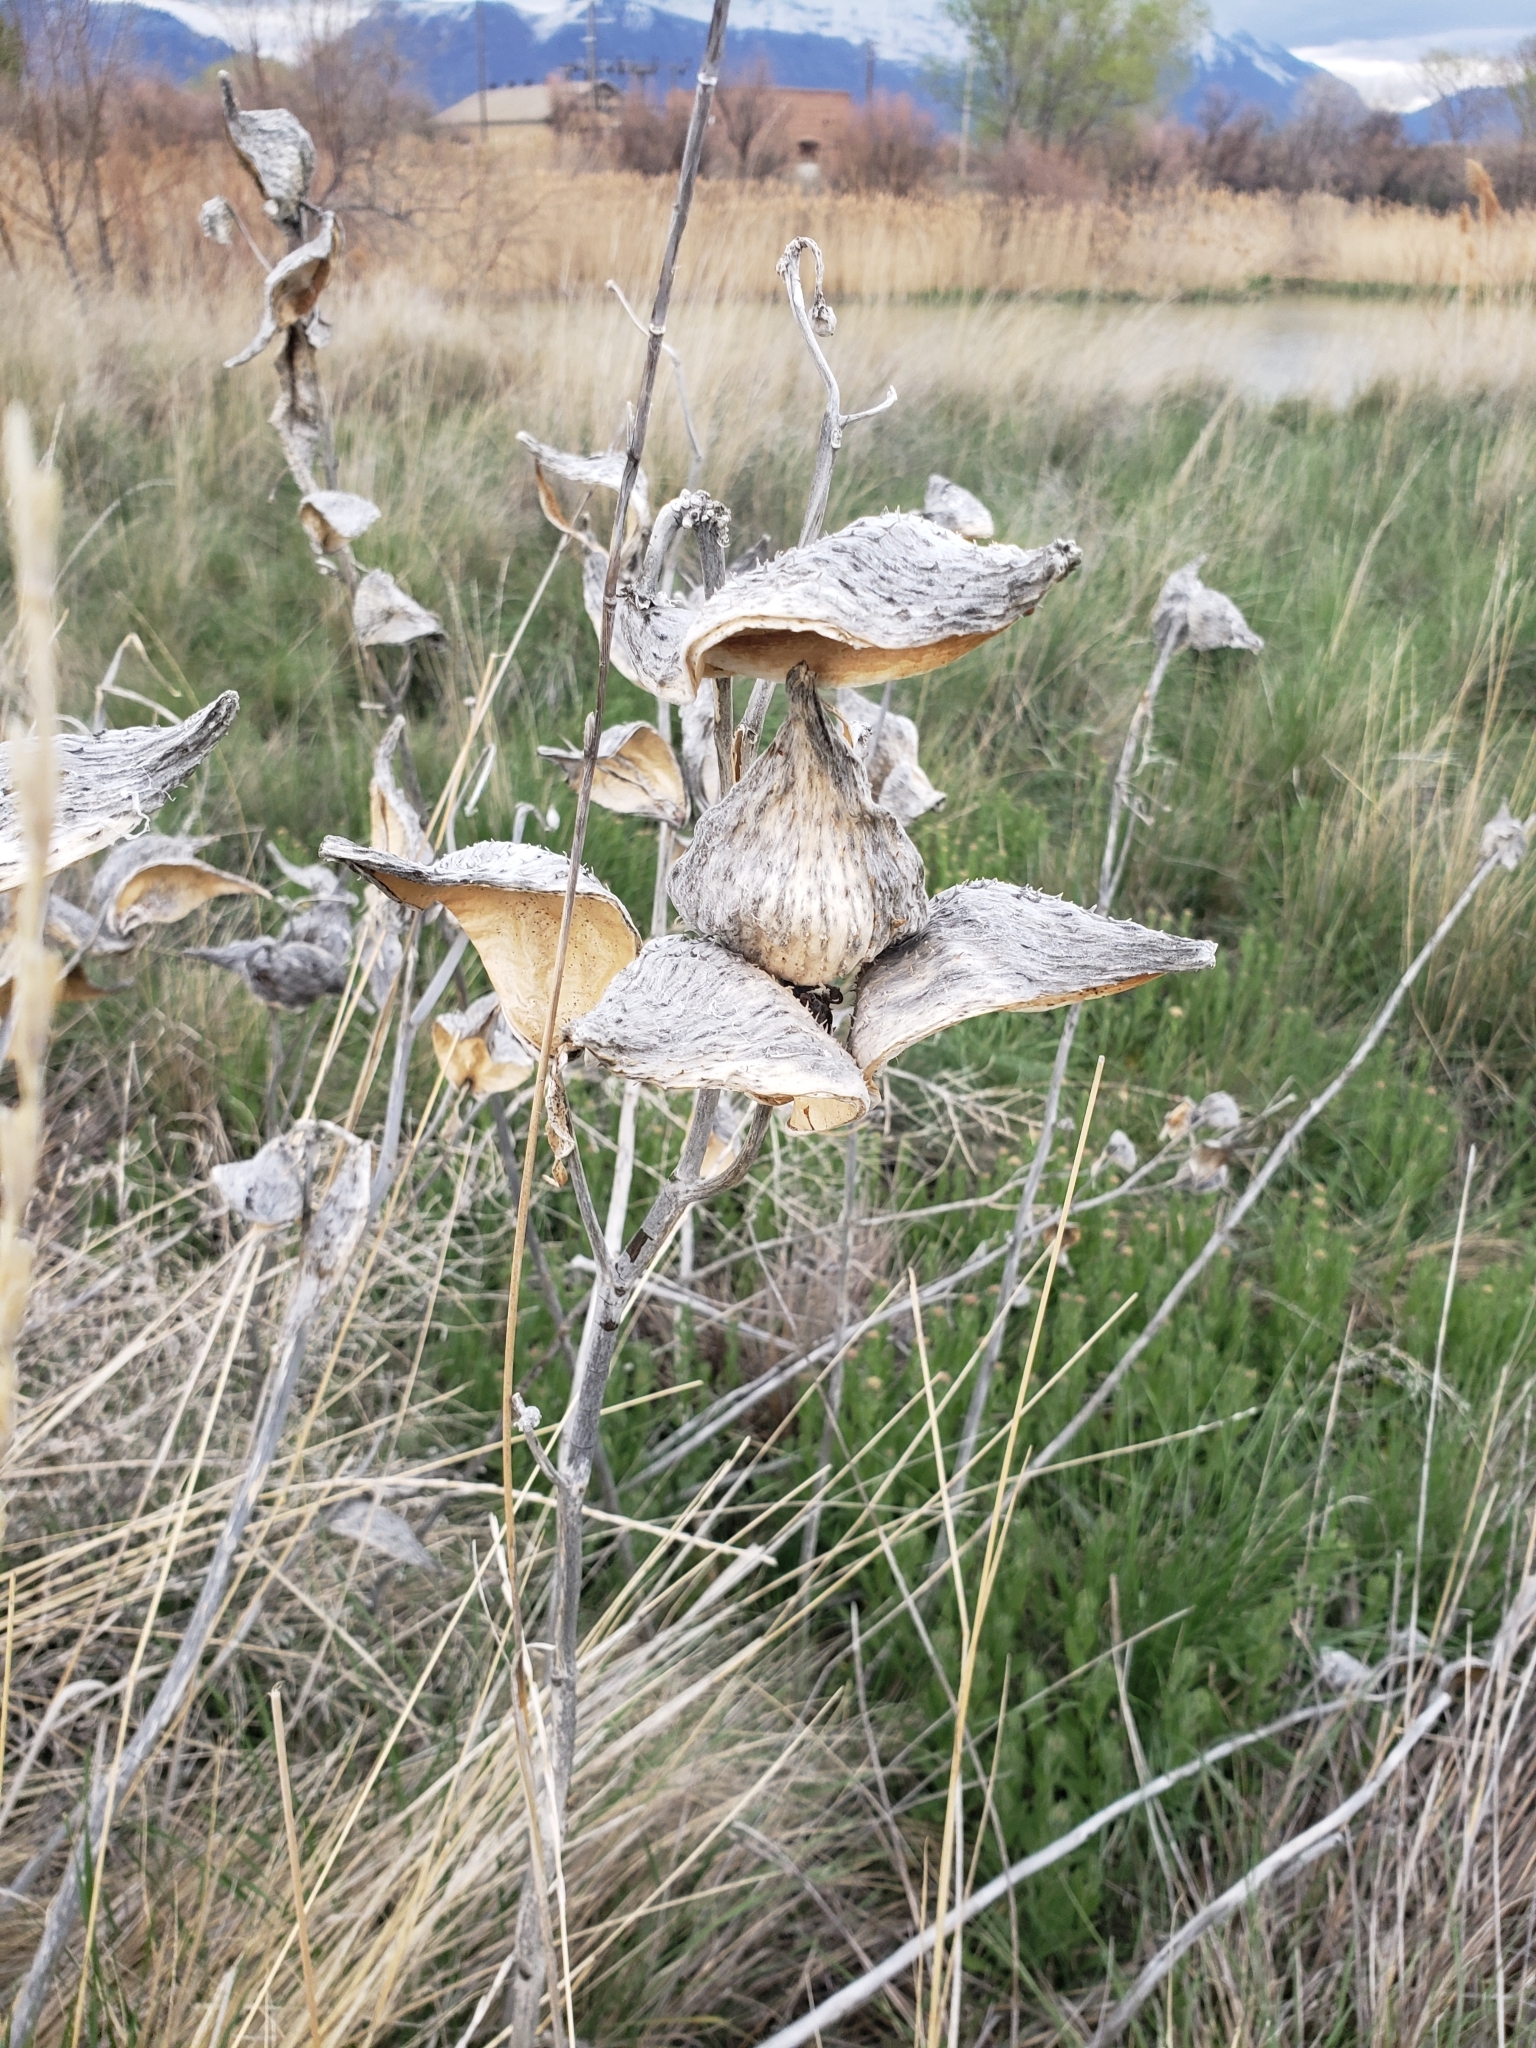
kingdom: Plantae
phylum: Tracheophyta
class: Magnoliopsida
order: Gentianales
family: Apocynaceae
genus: Asclepias
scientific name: Asclepias speciosa
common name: Showy milkweed
